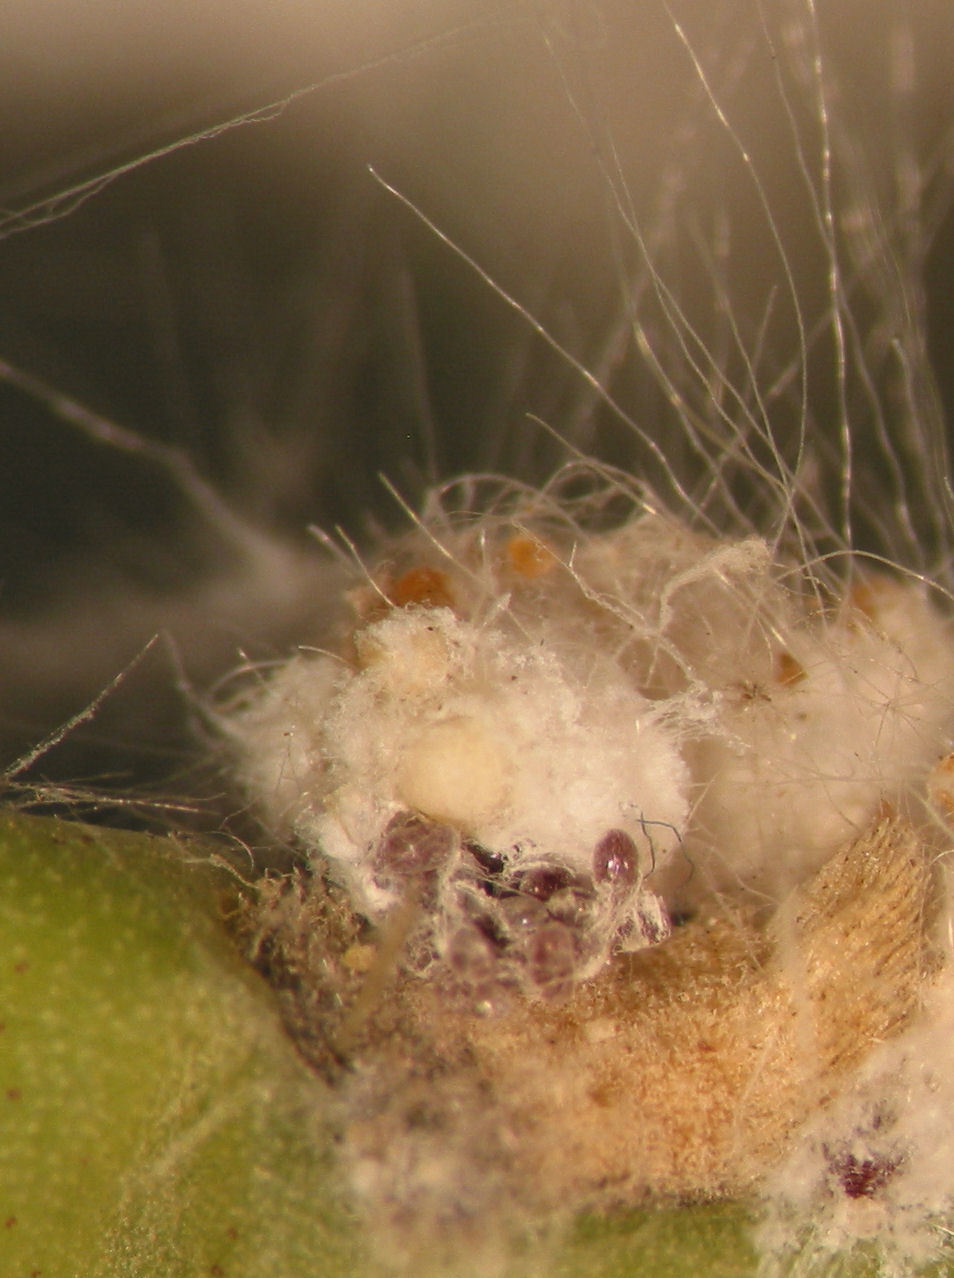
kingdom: Animalia
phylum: Arthropoda
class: Insecta
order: Hemiptera
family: Dactylopiidae
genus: Dactylopius
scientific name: Dactylopius tomentosus
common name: Tomentose cochineal scale
